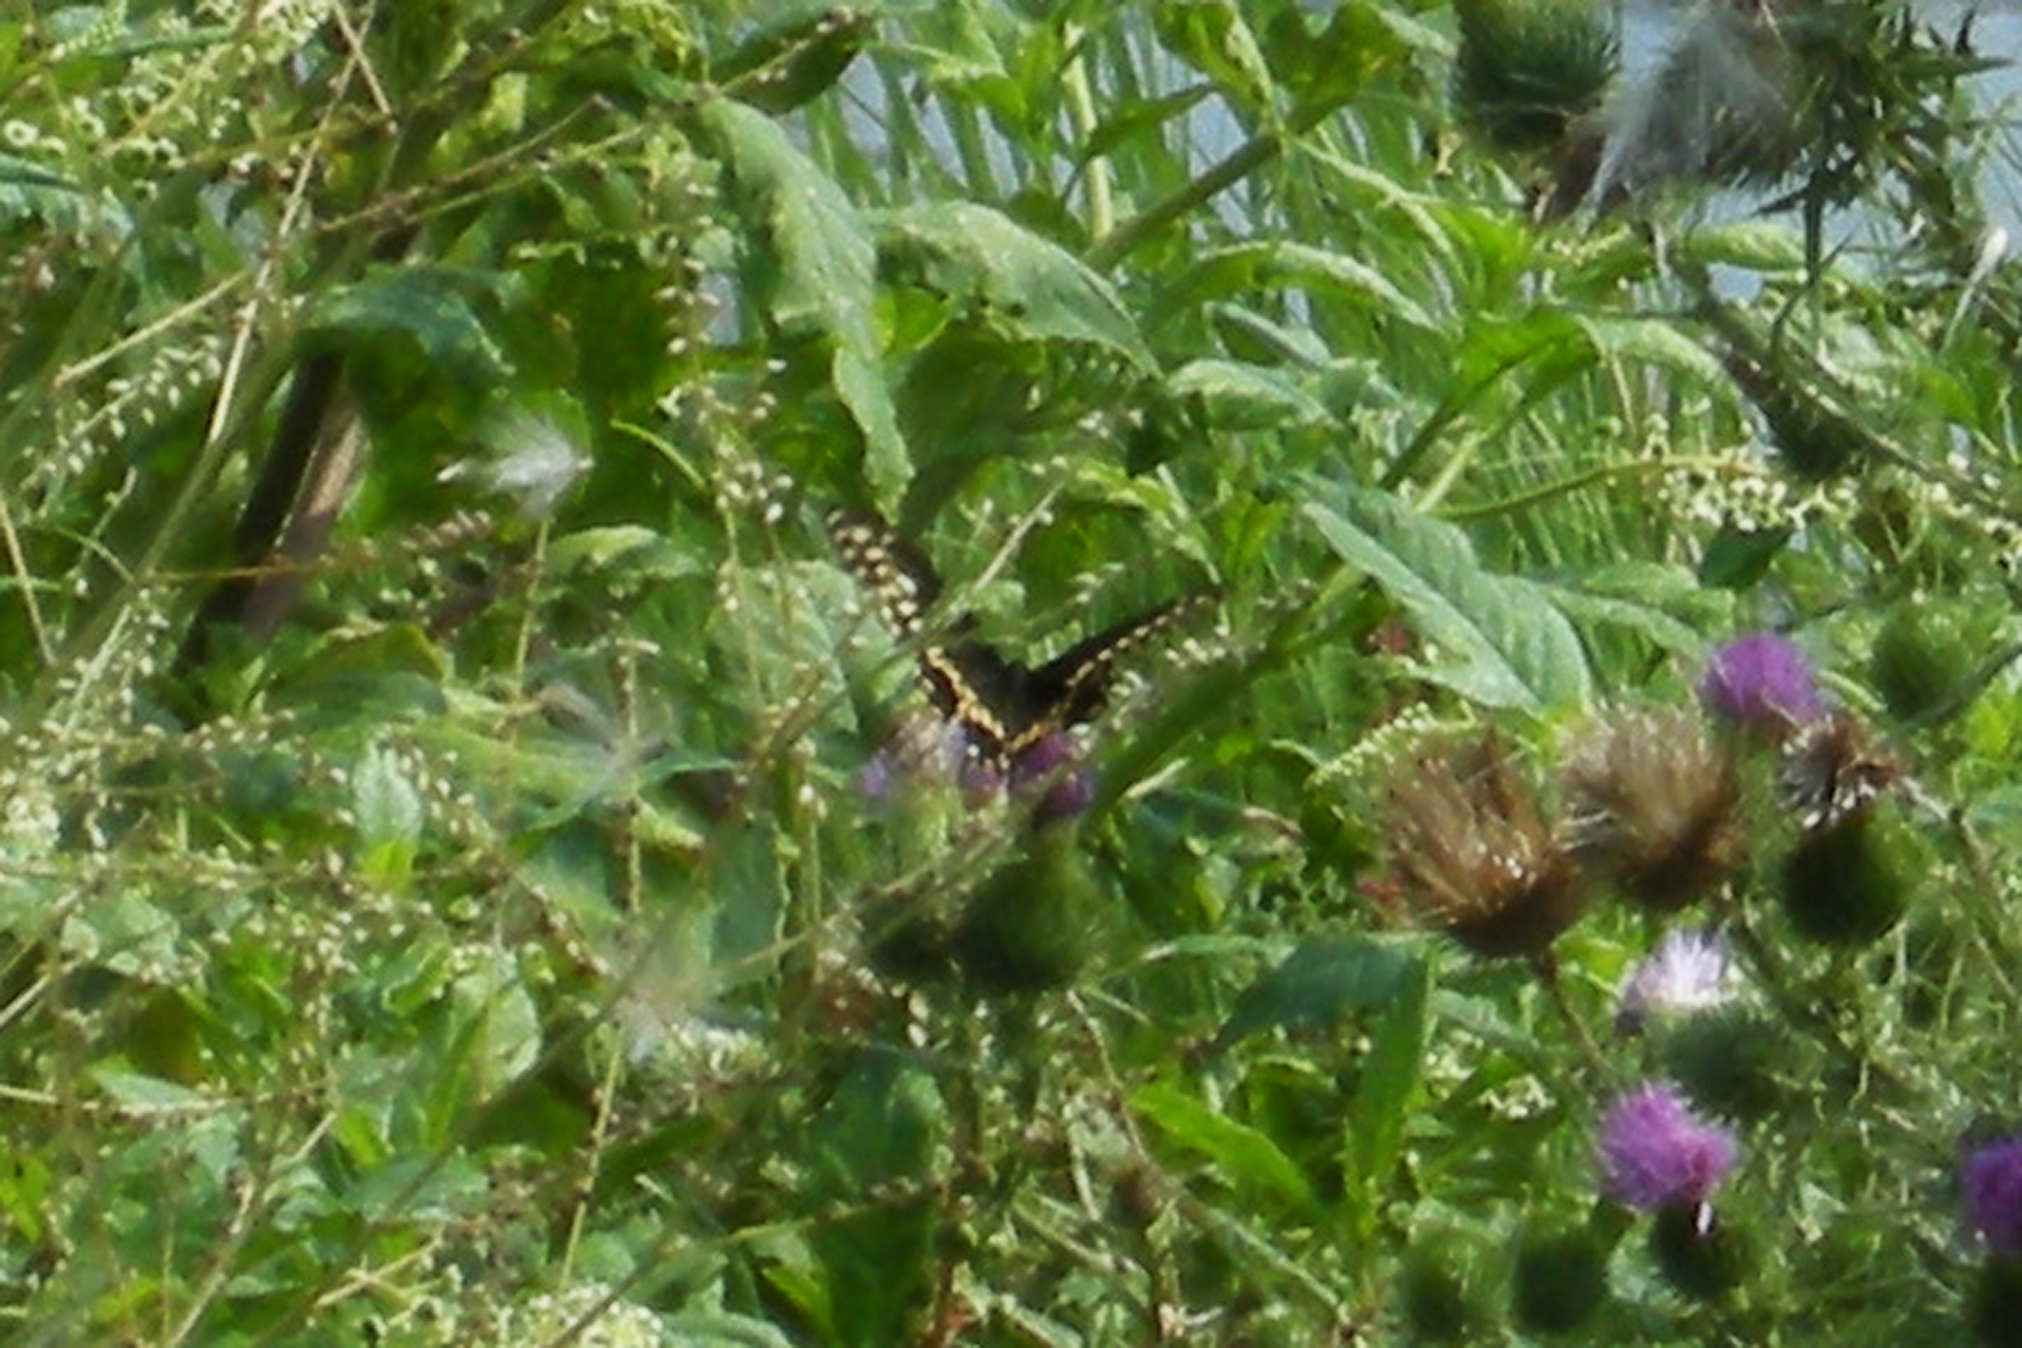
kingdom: Animalia
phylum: Arthropoda
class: Insecta
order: Lepidoptera
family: Papilionidae
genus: Papilio
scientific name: Papilio polyxenes
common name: Black swallowtail
